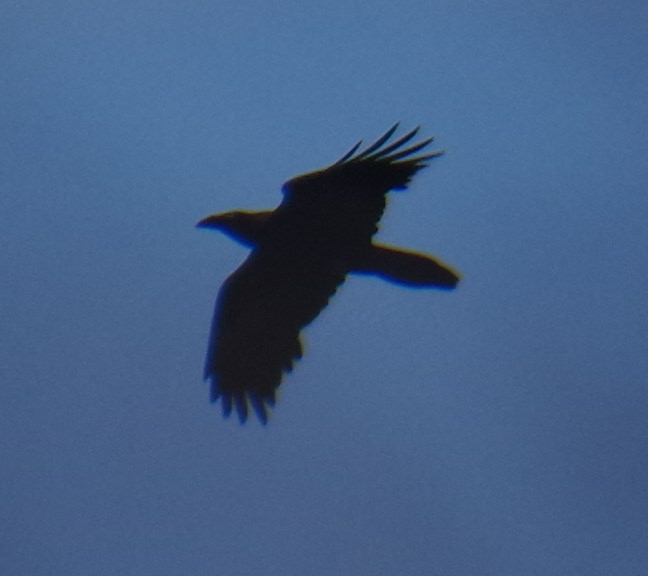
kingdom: Animalia
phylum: Chordata
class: Aves
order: Passeriformes
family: Corvidae
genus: Corvus
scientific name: Corvus corax
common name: Common raven
